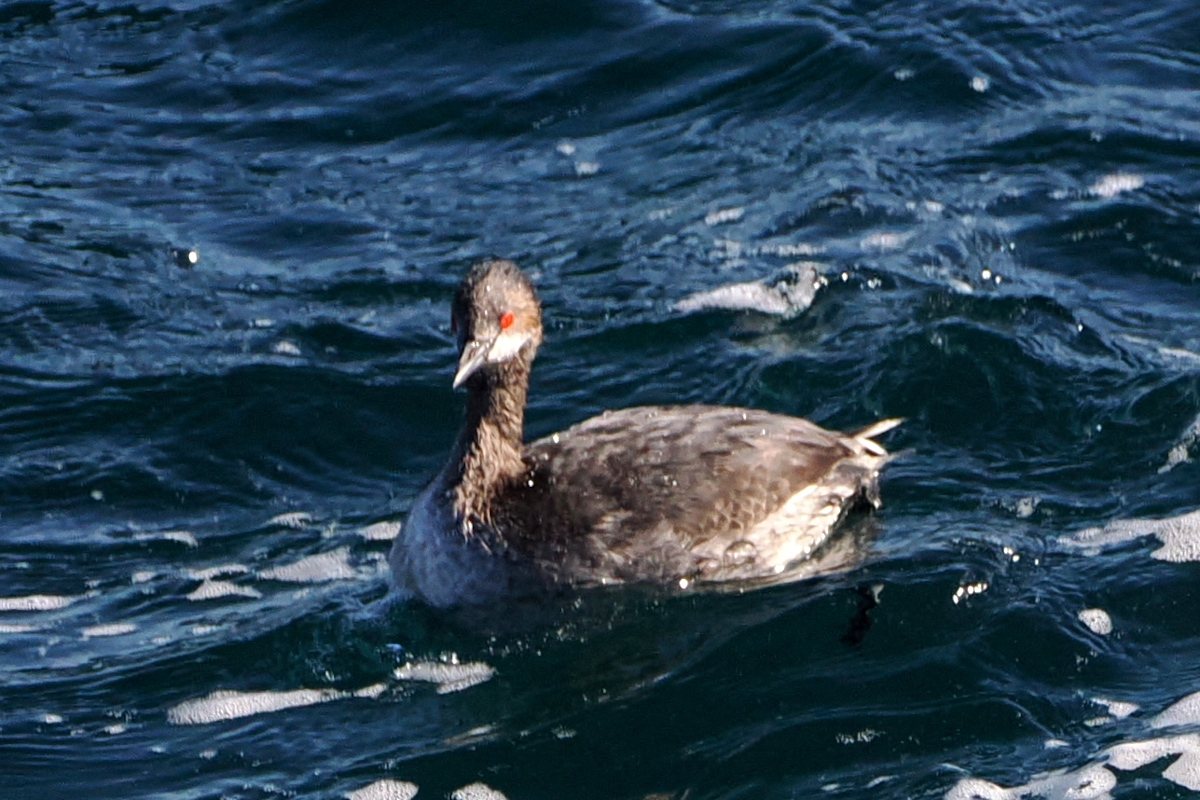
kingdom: Animalia
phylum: Chordata
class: Aves
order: Podicipediformes
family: Podicipedidae
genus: Podiceps
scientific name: Podiceps nigricollis
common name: Black-necked grebe
